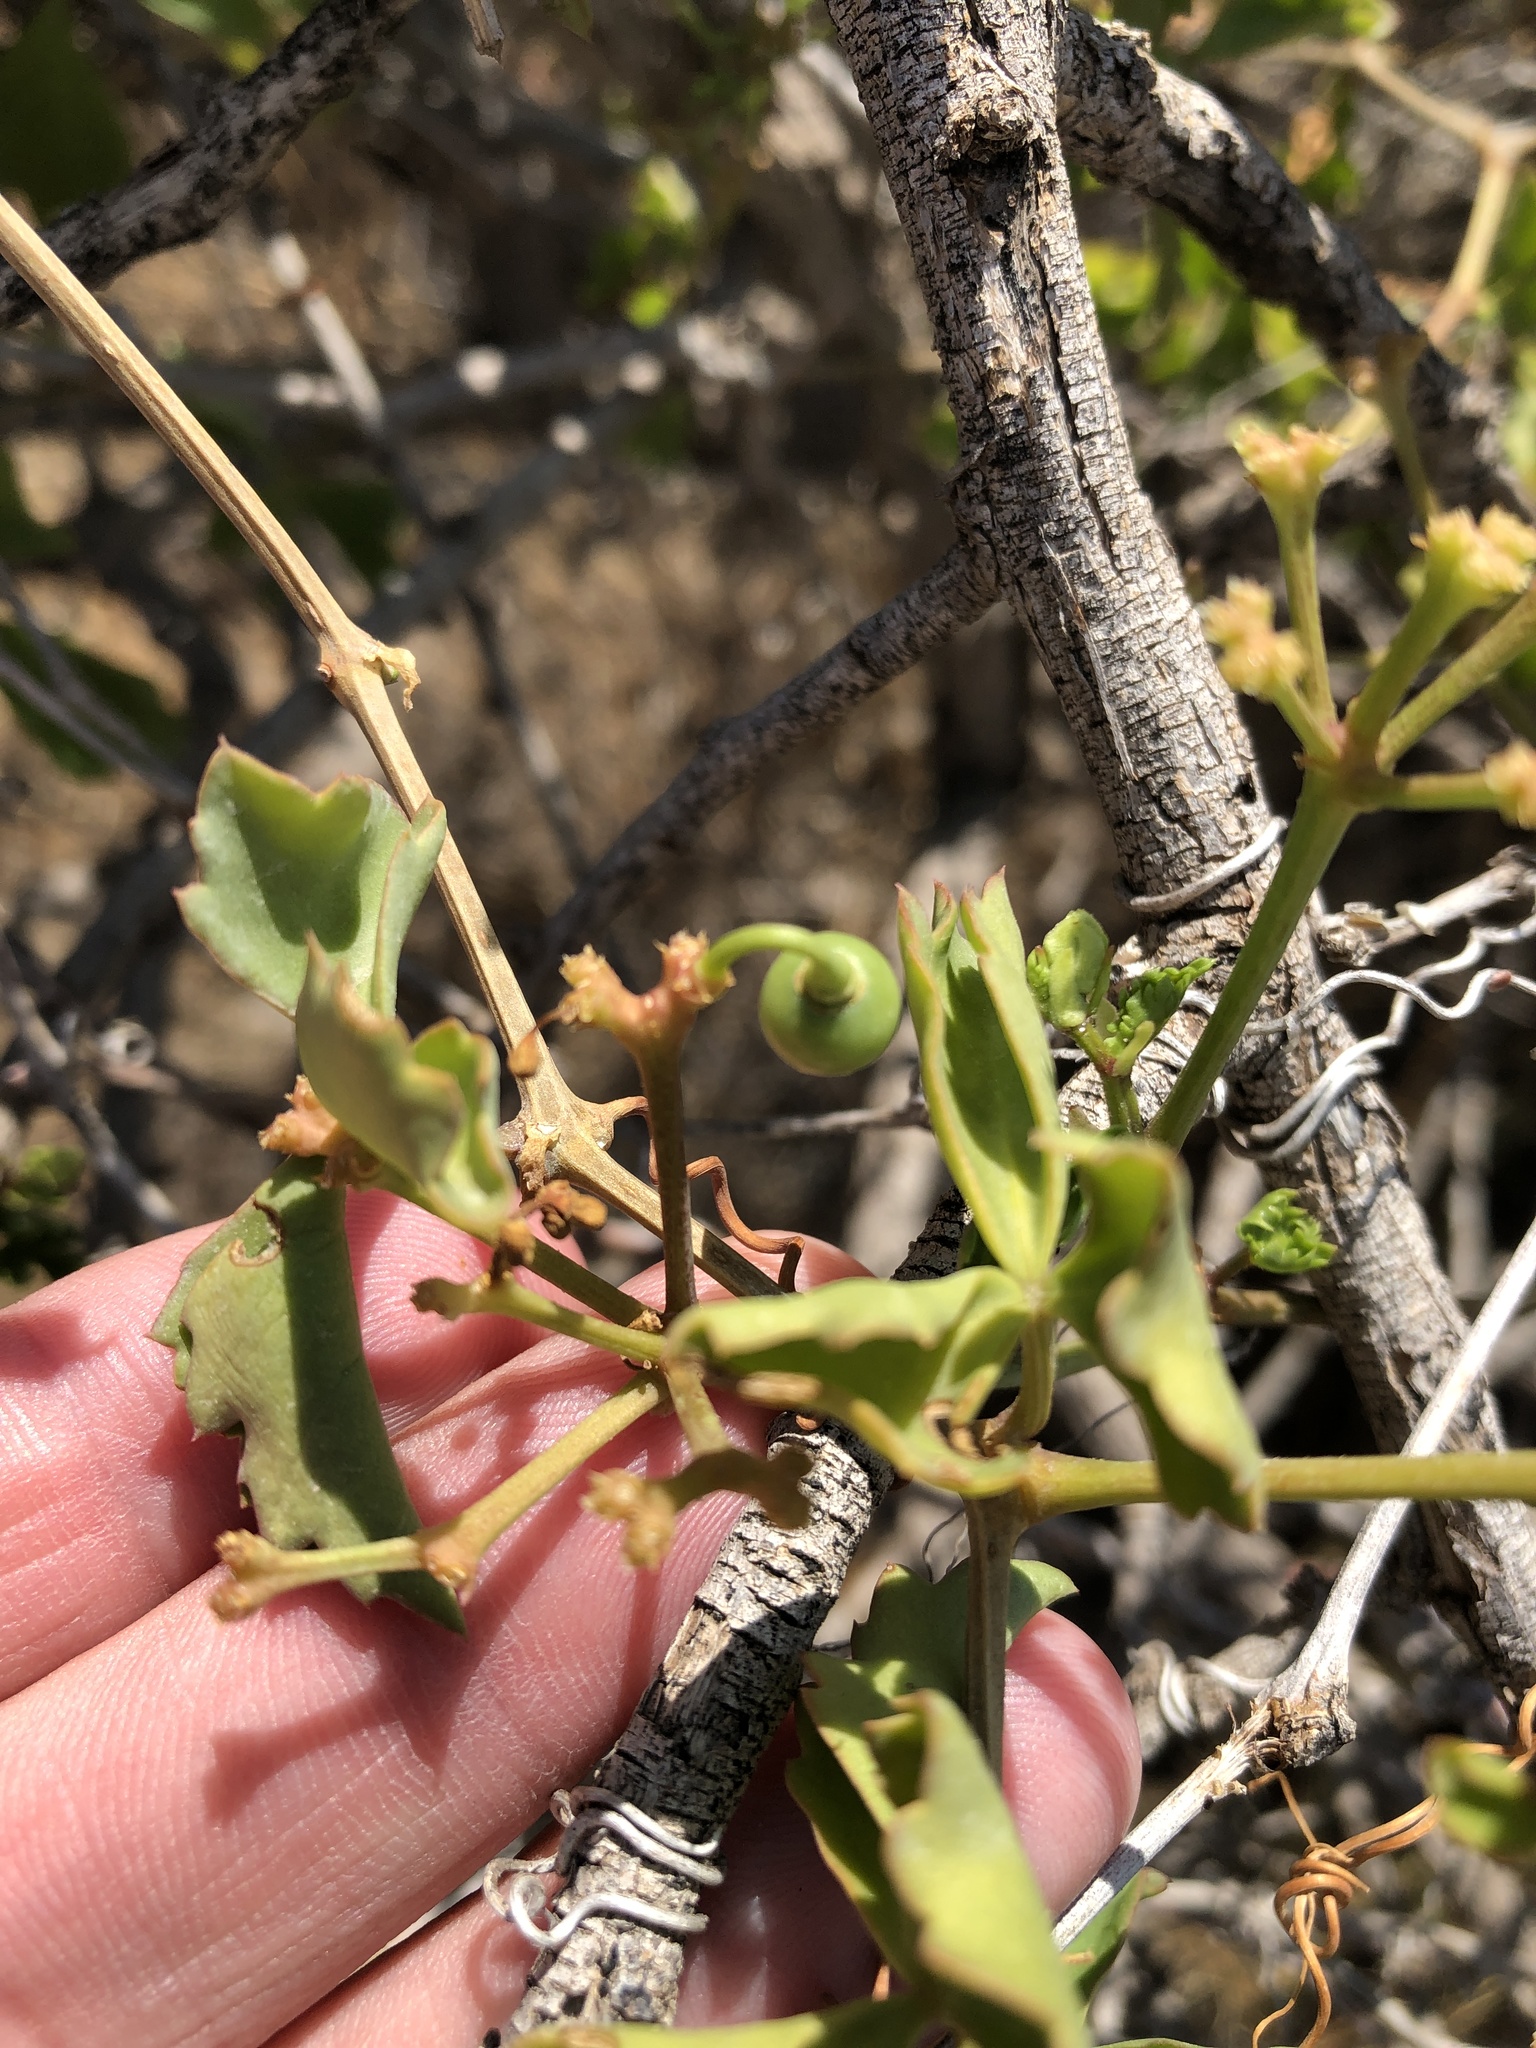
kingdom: Plantae
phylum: Tracheophyta
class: Magnoliopsida
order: Vitales
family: Vitaceae
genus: Cissus
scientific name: Cissus trifoliata
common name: Vine-sorrel
